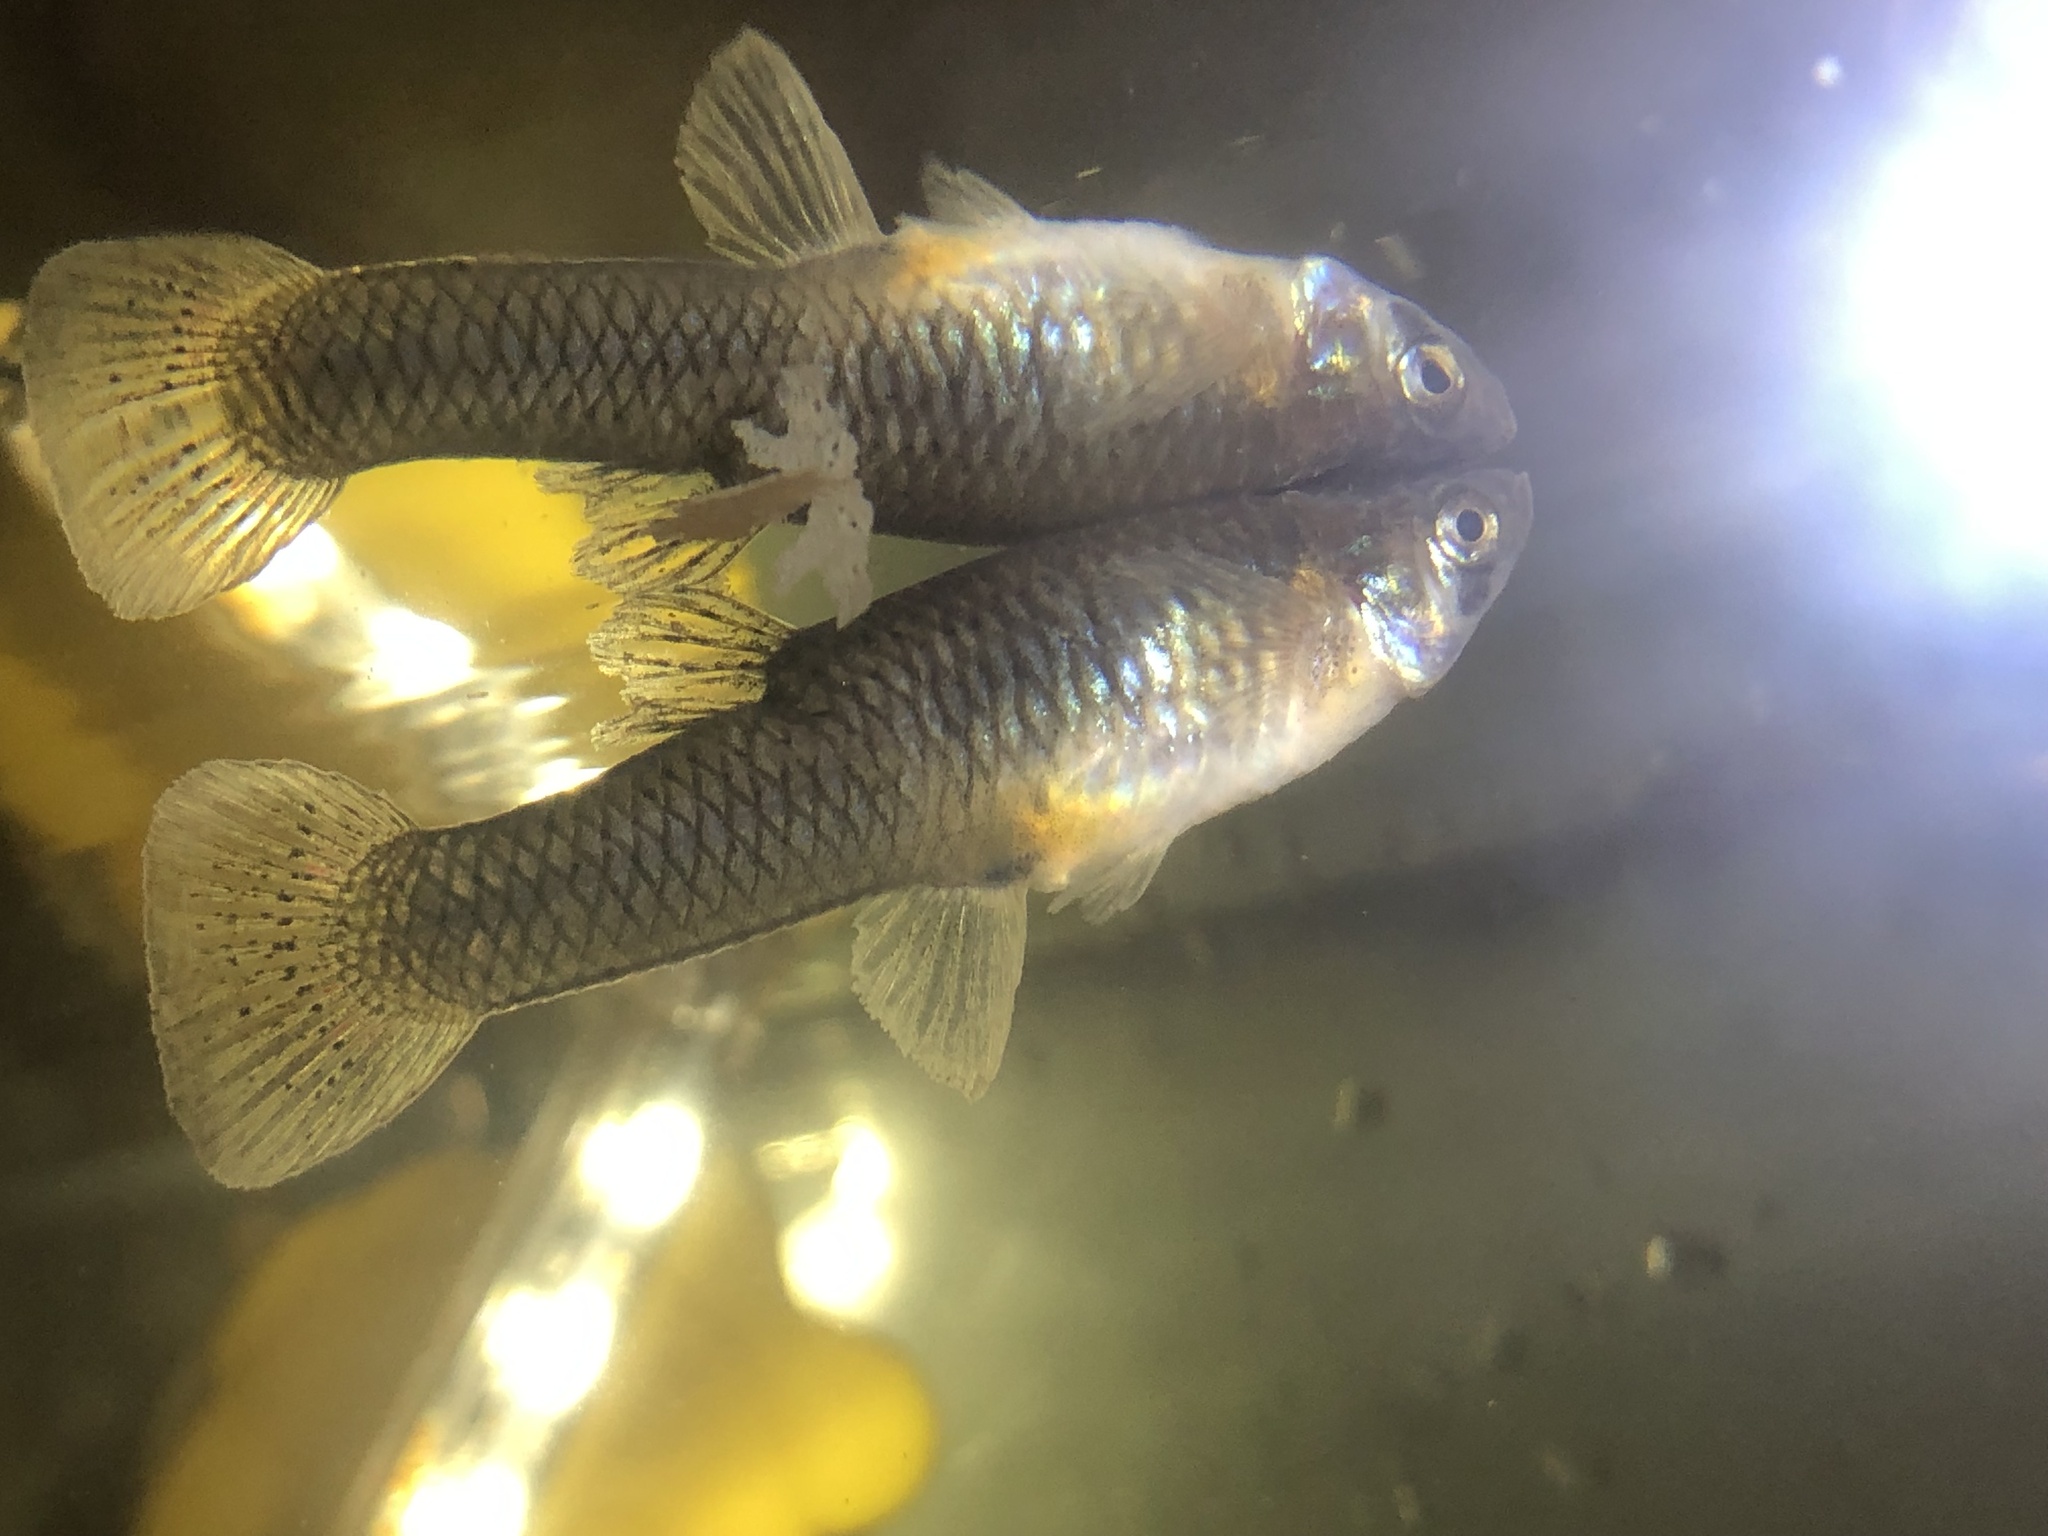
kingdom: Animalia
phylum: Chordata
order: Cyprinodontiformes
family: Poeciliidae
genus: Gambusia
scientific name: Gambusia affinis
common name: Mosquitofish
